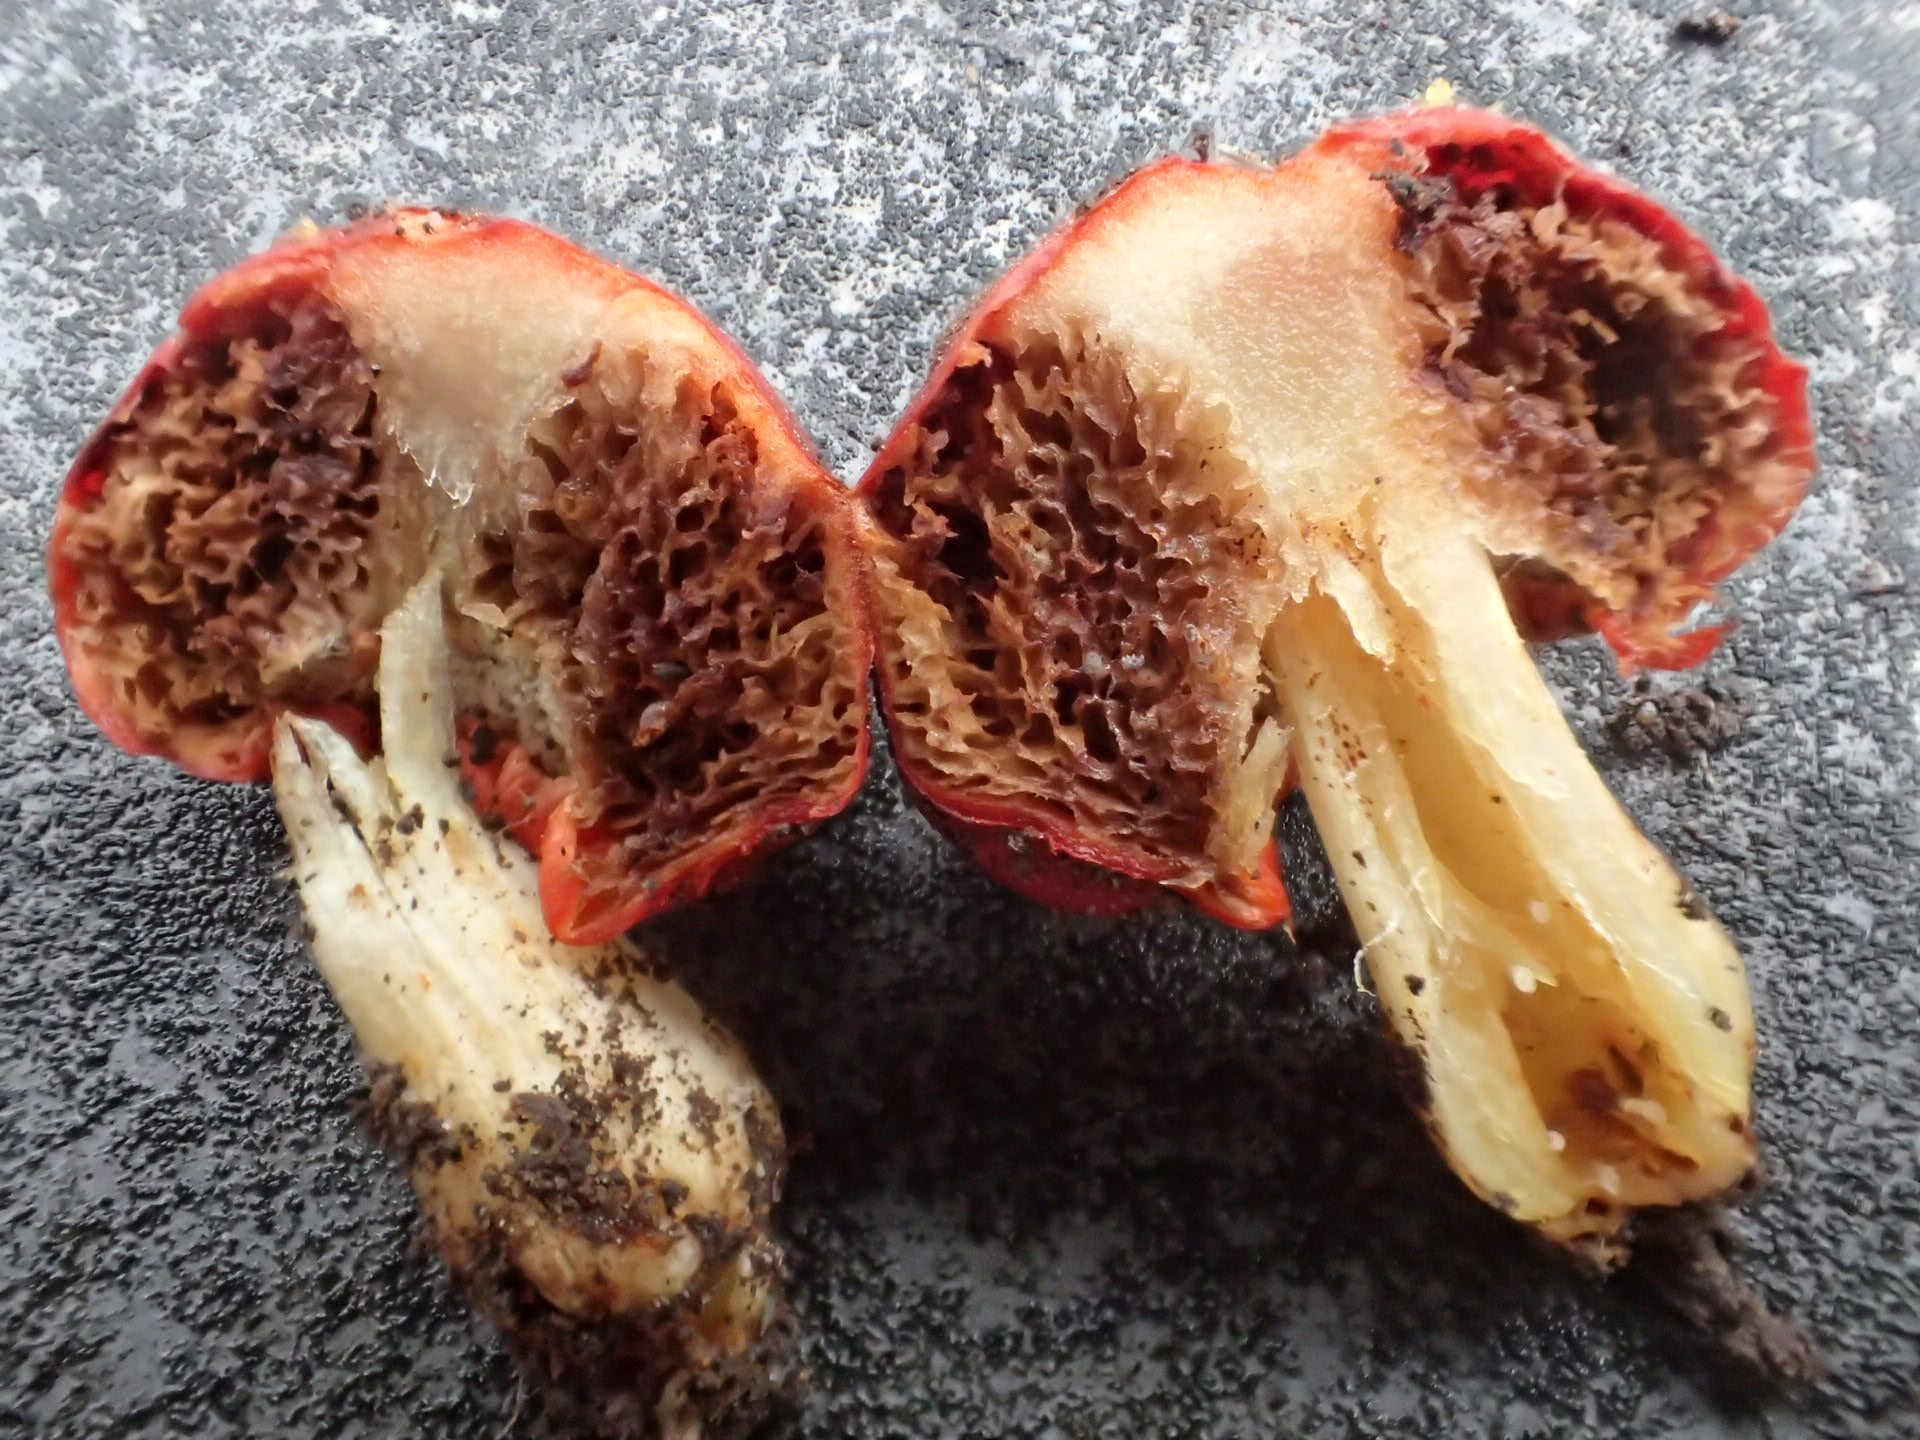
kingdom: Fungi
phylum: Basidiomycota
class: Agaricomycetes
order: Agaricales
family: Strophariaceae
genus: Leratiomyces
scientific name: Leratiomyces erythrocephalus
